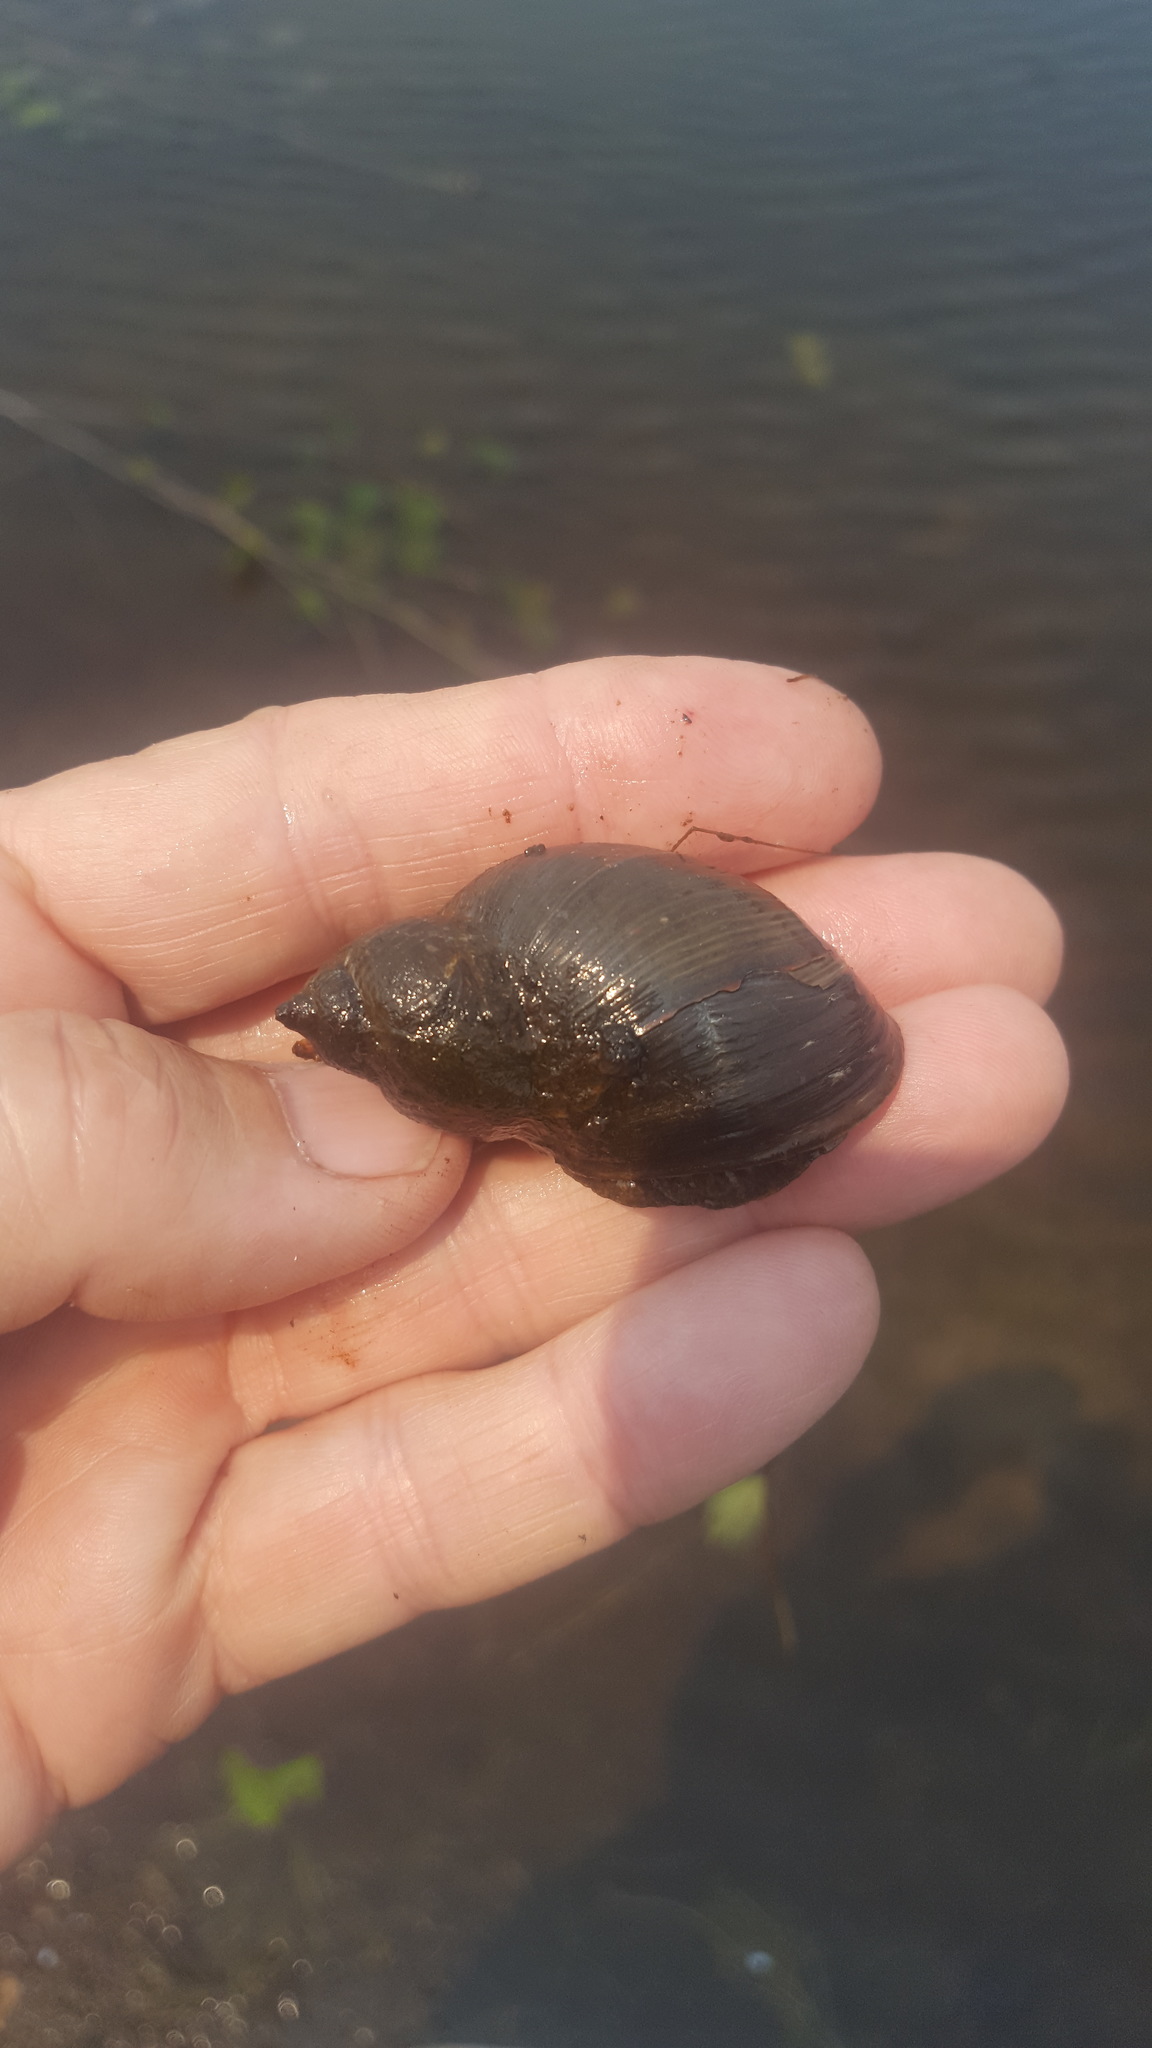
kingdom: Animalia
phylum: Mollusca
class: Gastropoda
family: Lymnaeidae
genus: Lymnaea
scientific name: Lymnaea stagnalis
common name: Great pond snail
